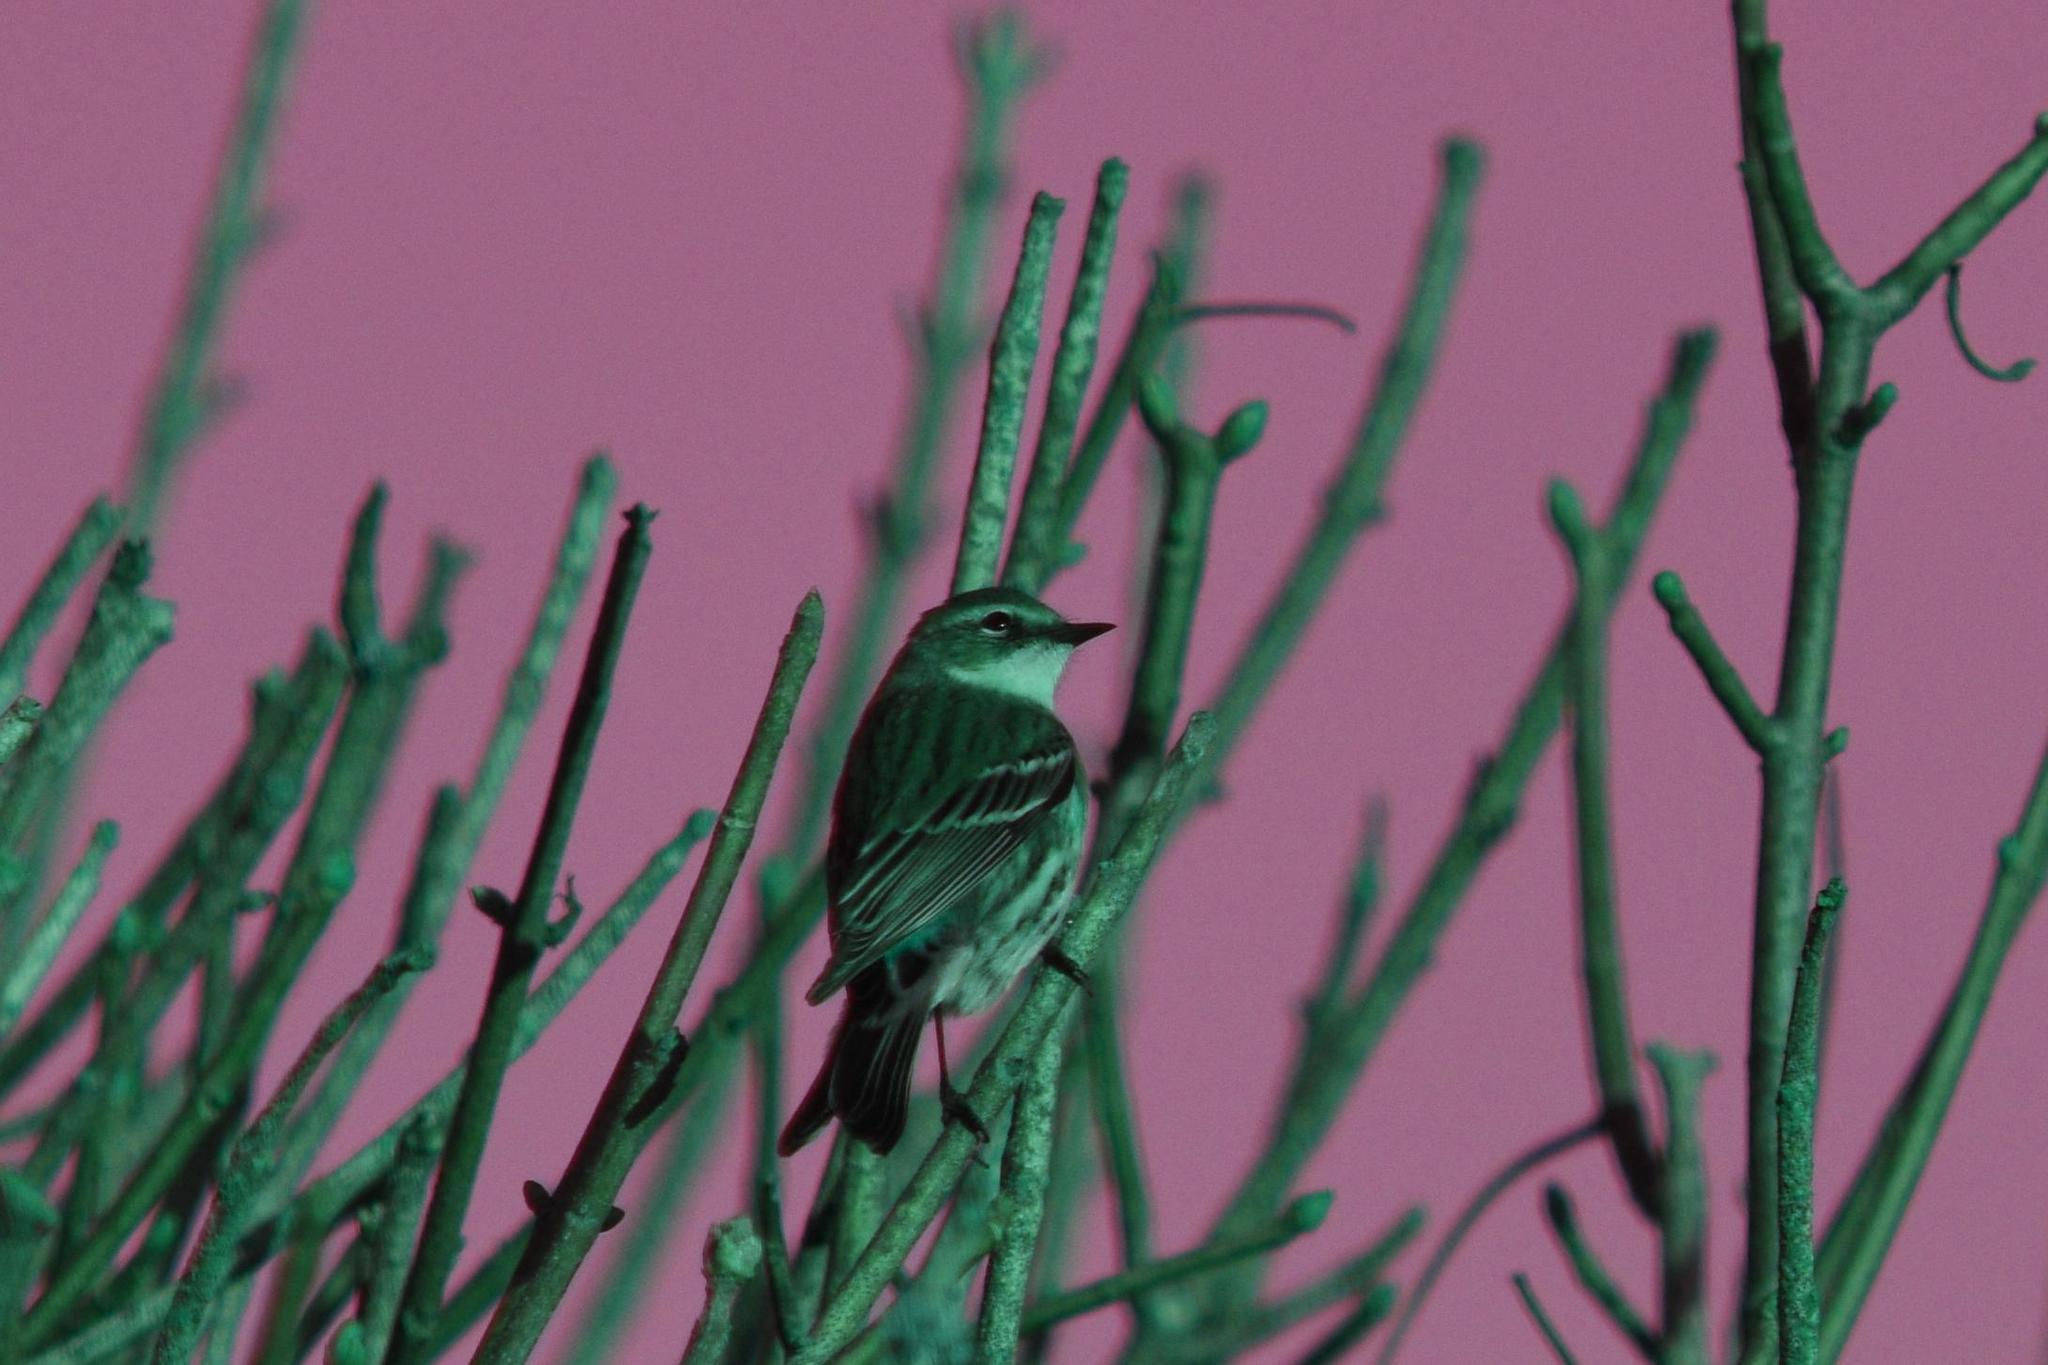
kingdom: Animalia
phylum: Chordata
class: Aves
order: Passeriformes
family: Parulidae
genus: Setophaga
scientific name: Setophaga coronata
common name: Myrtle warbler
